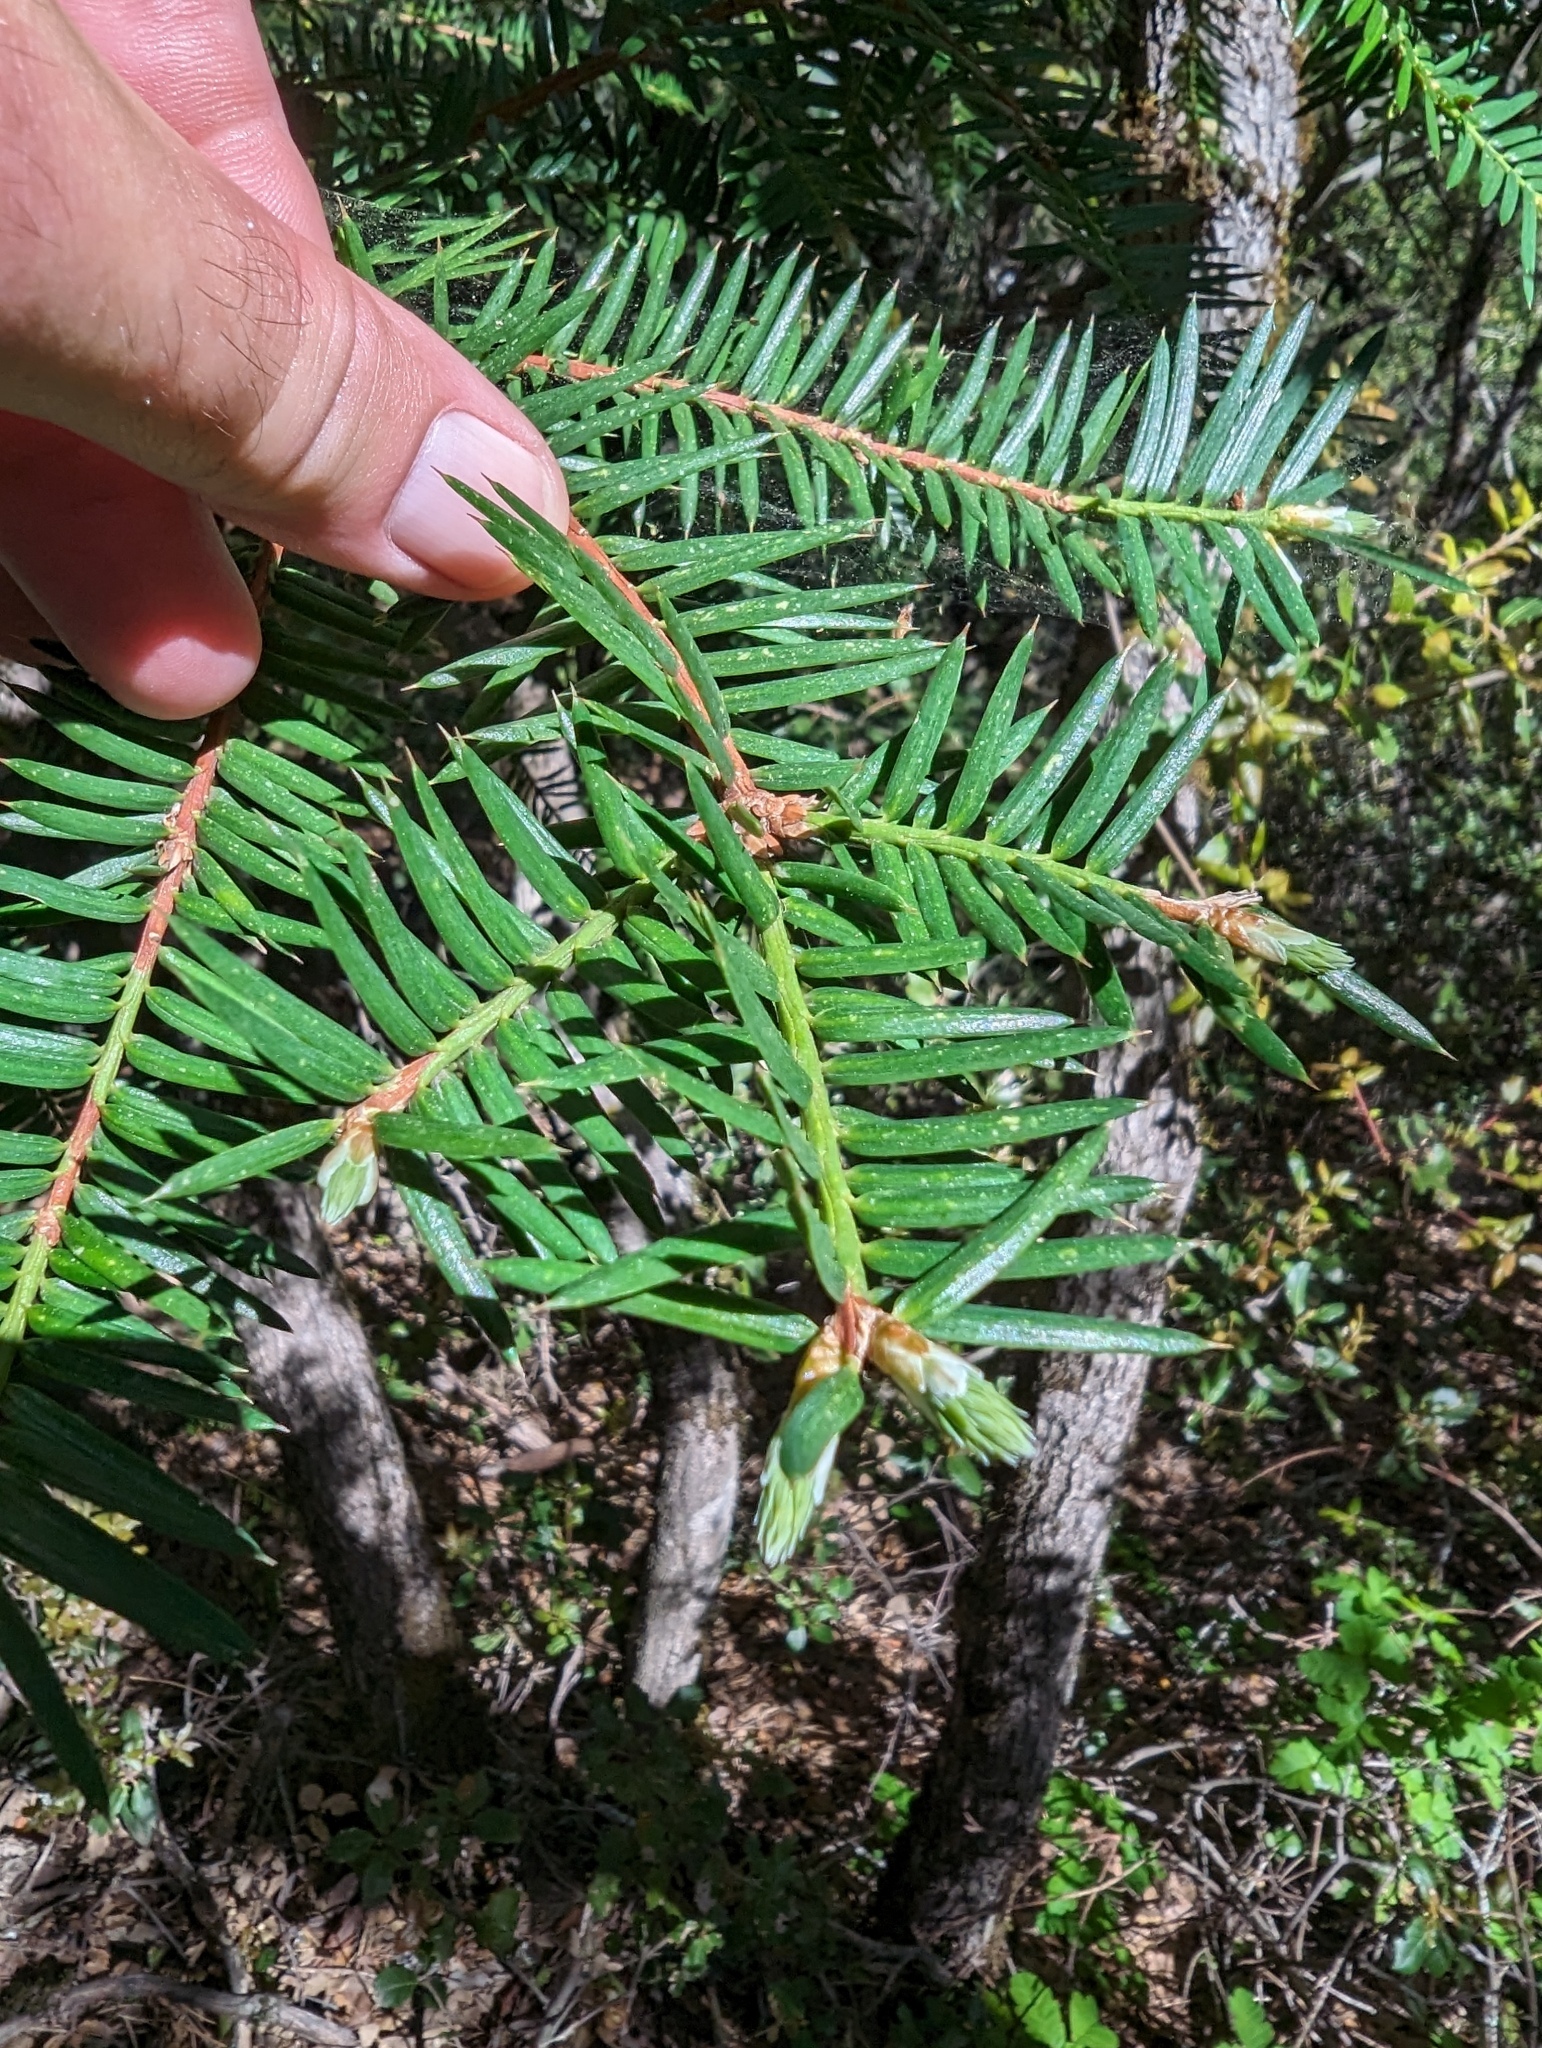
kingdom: Plantae
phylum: Tracheophyta
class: Pinopsida
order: Pinales
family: Taxaceae
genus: Torreya
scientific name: Torreya californica
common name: California torreya
